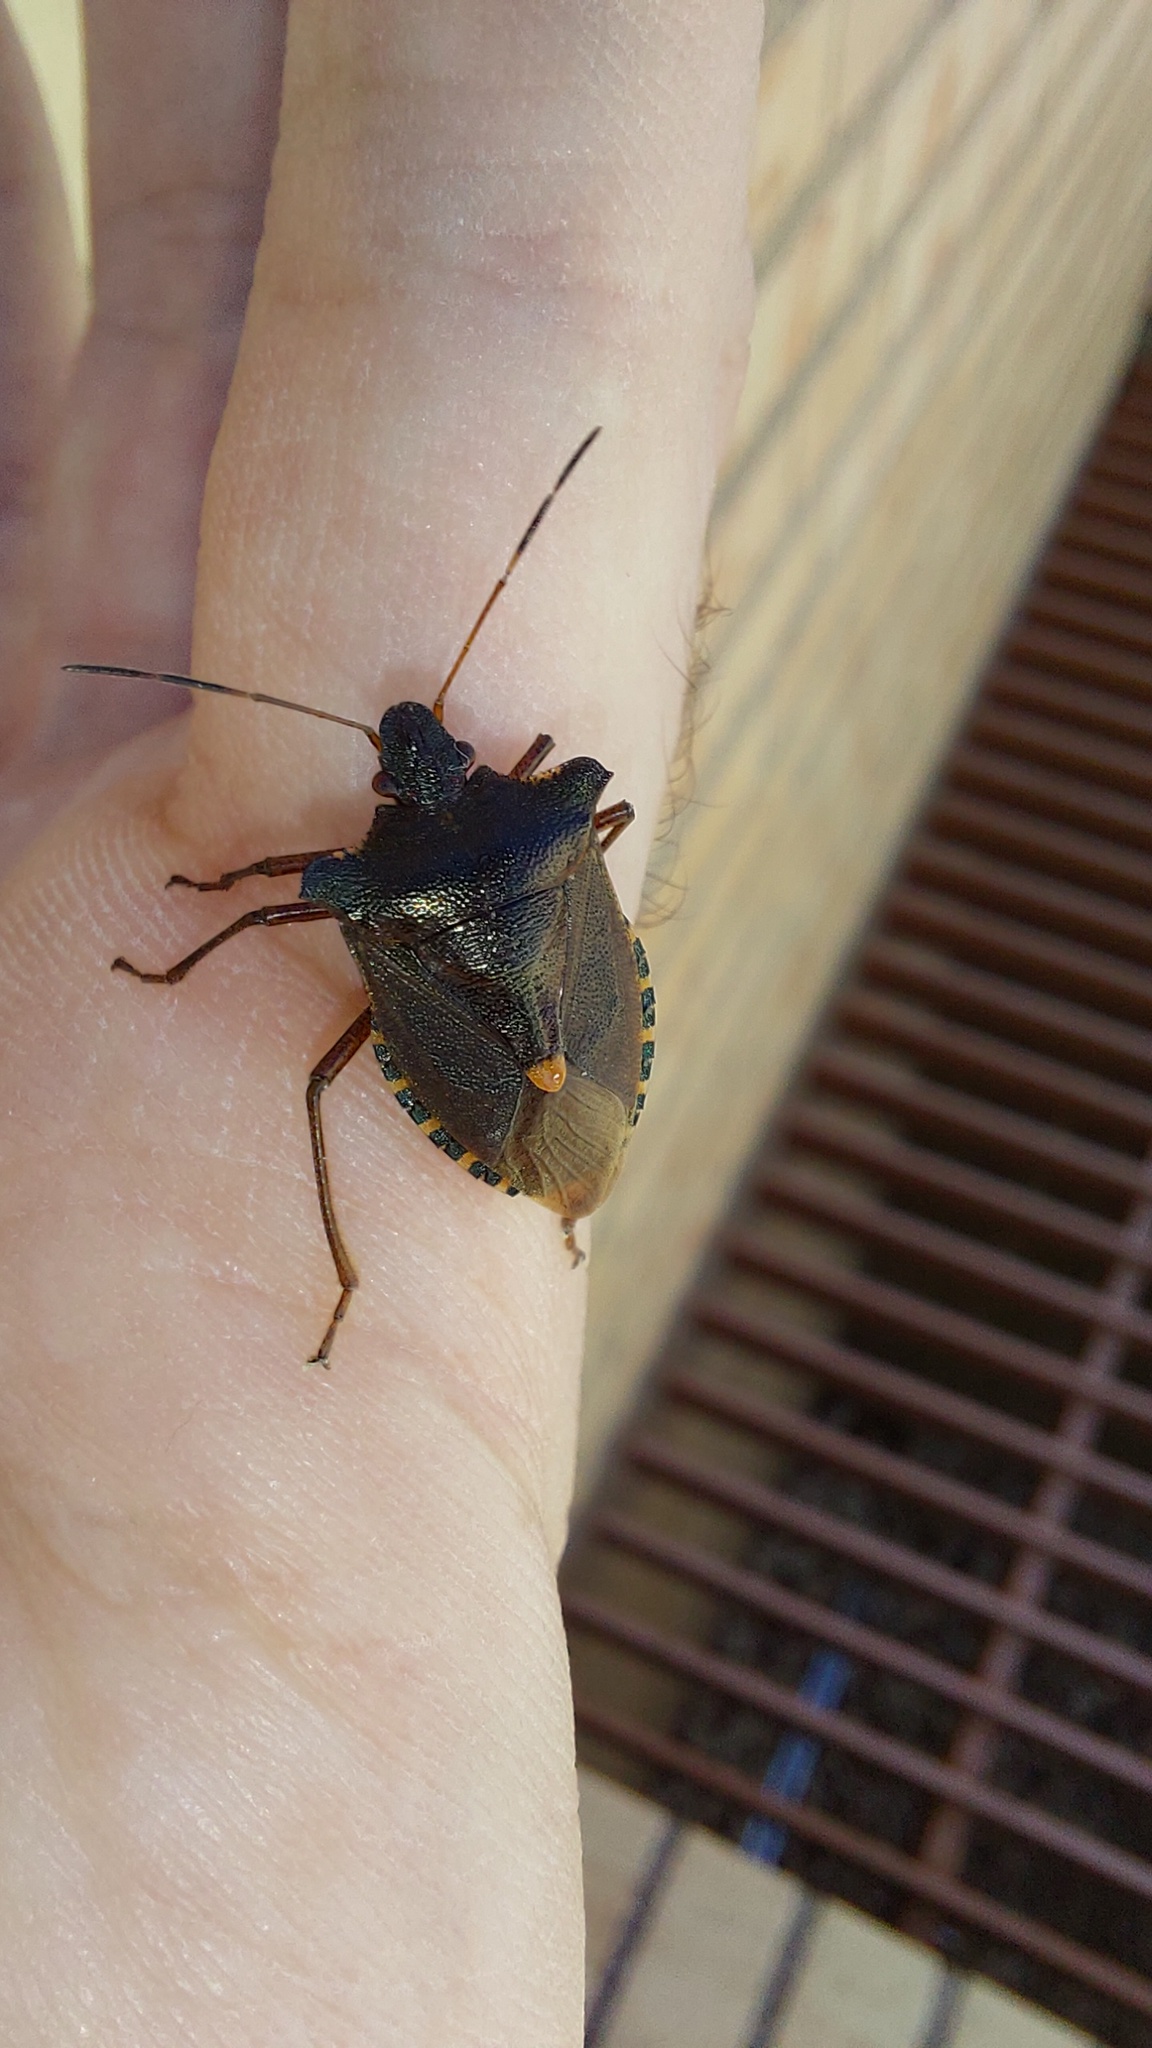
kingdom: Animalia
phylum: Arthropoda
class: Insecta
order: Hemiptera
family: Pentatomidae
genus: Pentatoma
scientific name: Pentatoma rufipes
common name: Forest bug
